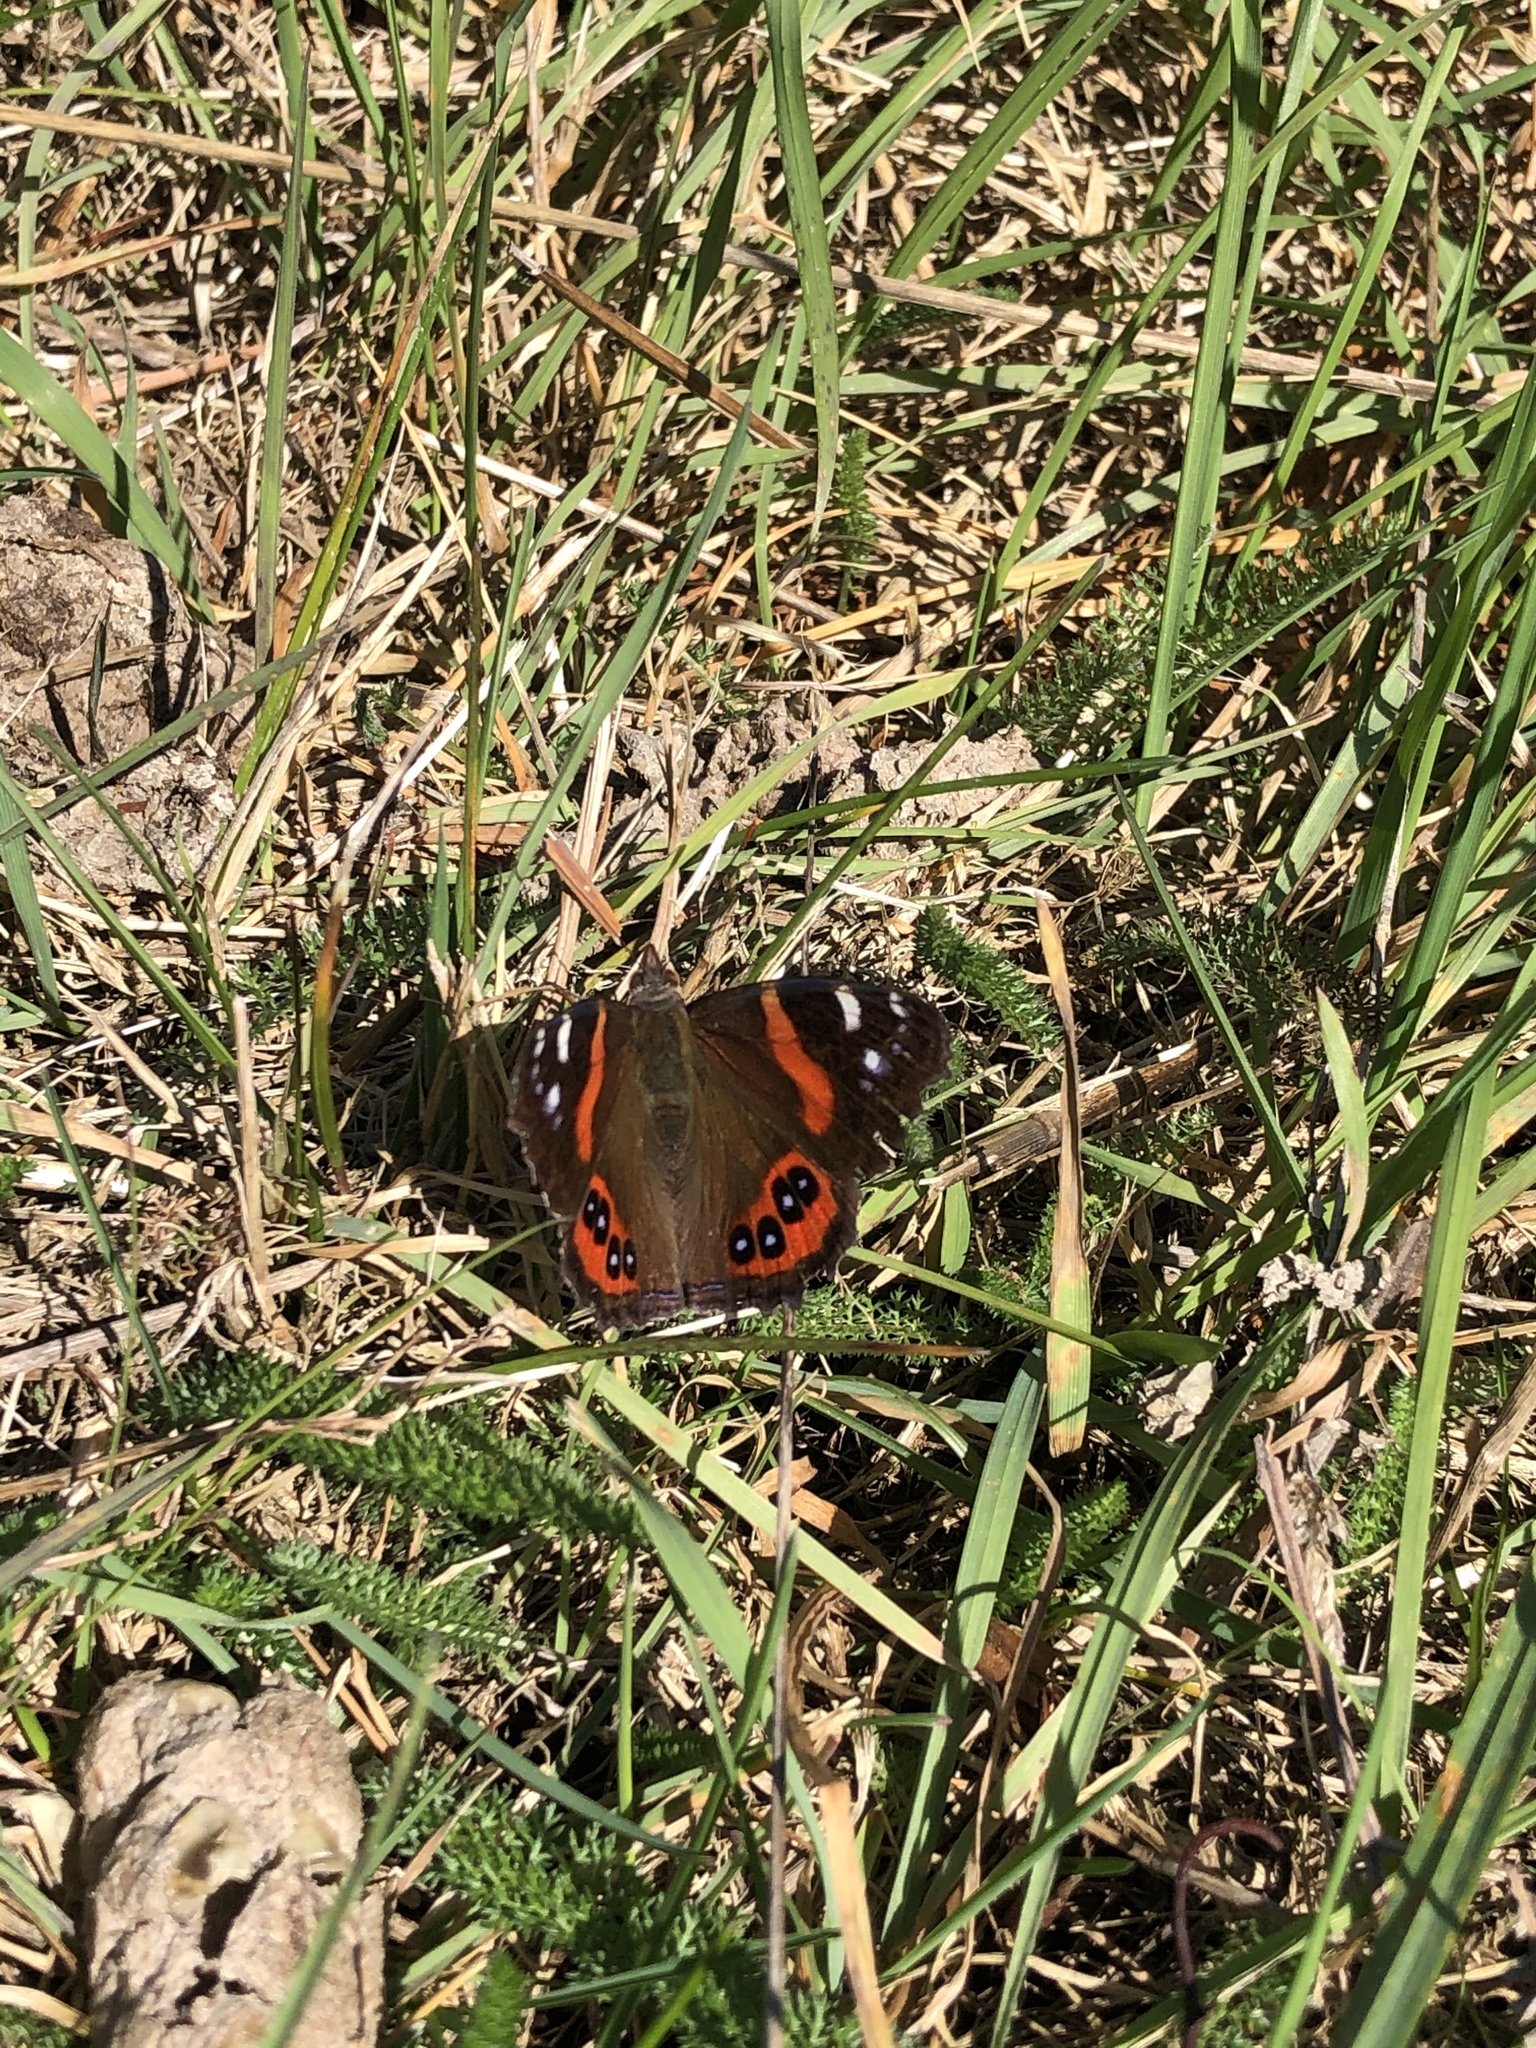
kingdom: Animalia
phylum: Arthropoda
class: Insecta
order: Lepidoptera
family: Nymphalidae
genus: Vanessa
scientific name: Vanessa gonerilla
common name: New zealand red admiral
